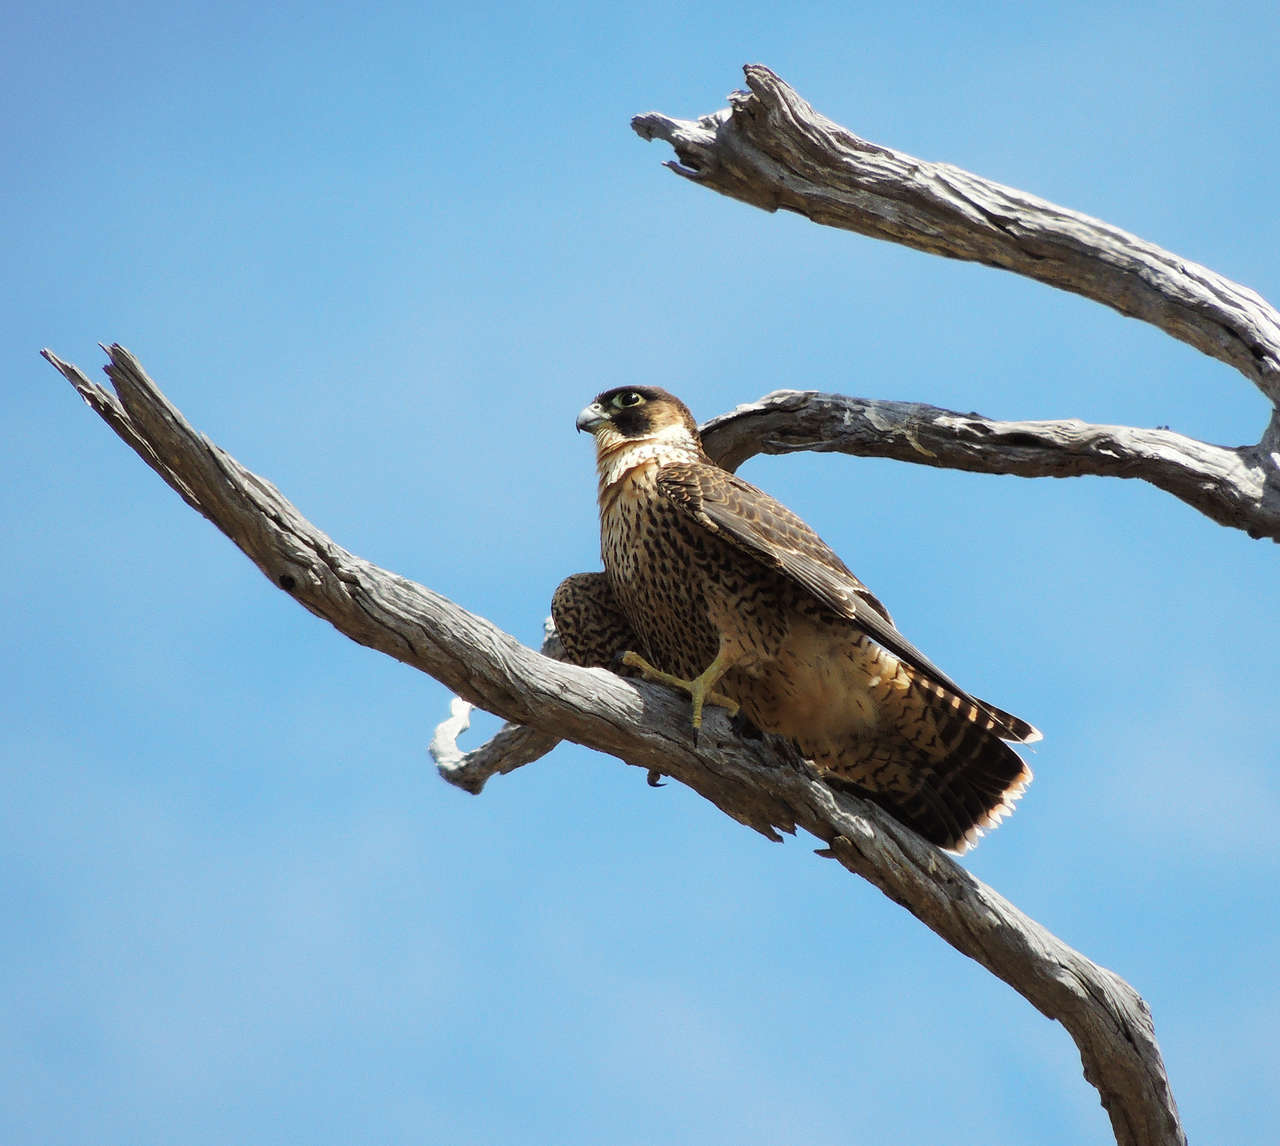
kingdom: Animalia
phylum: Chordata
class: Aves
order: Falconiformes
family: Falconidae
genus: Falco
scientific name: Falco peregrinus
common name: Peregrine falcon
